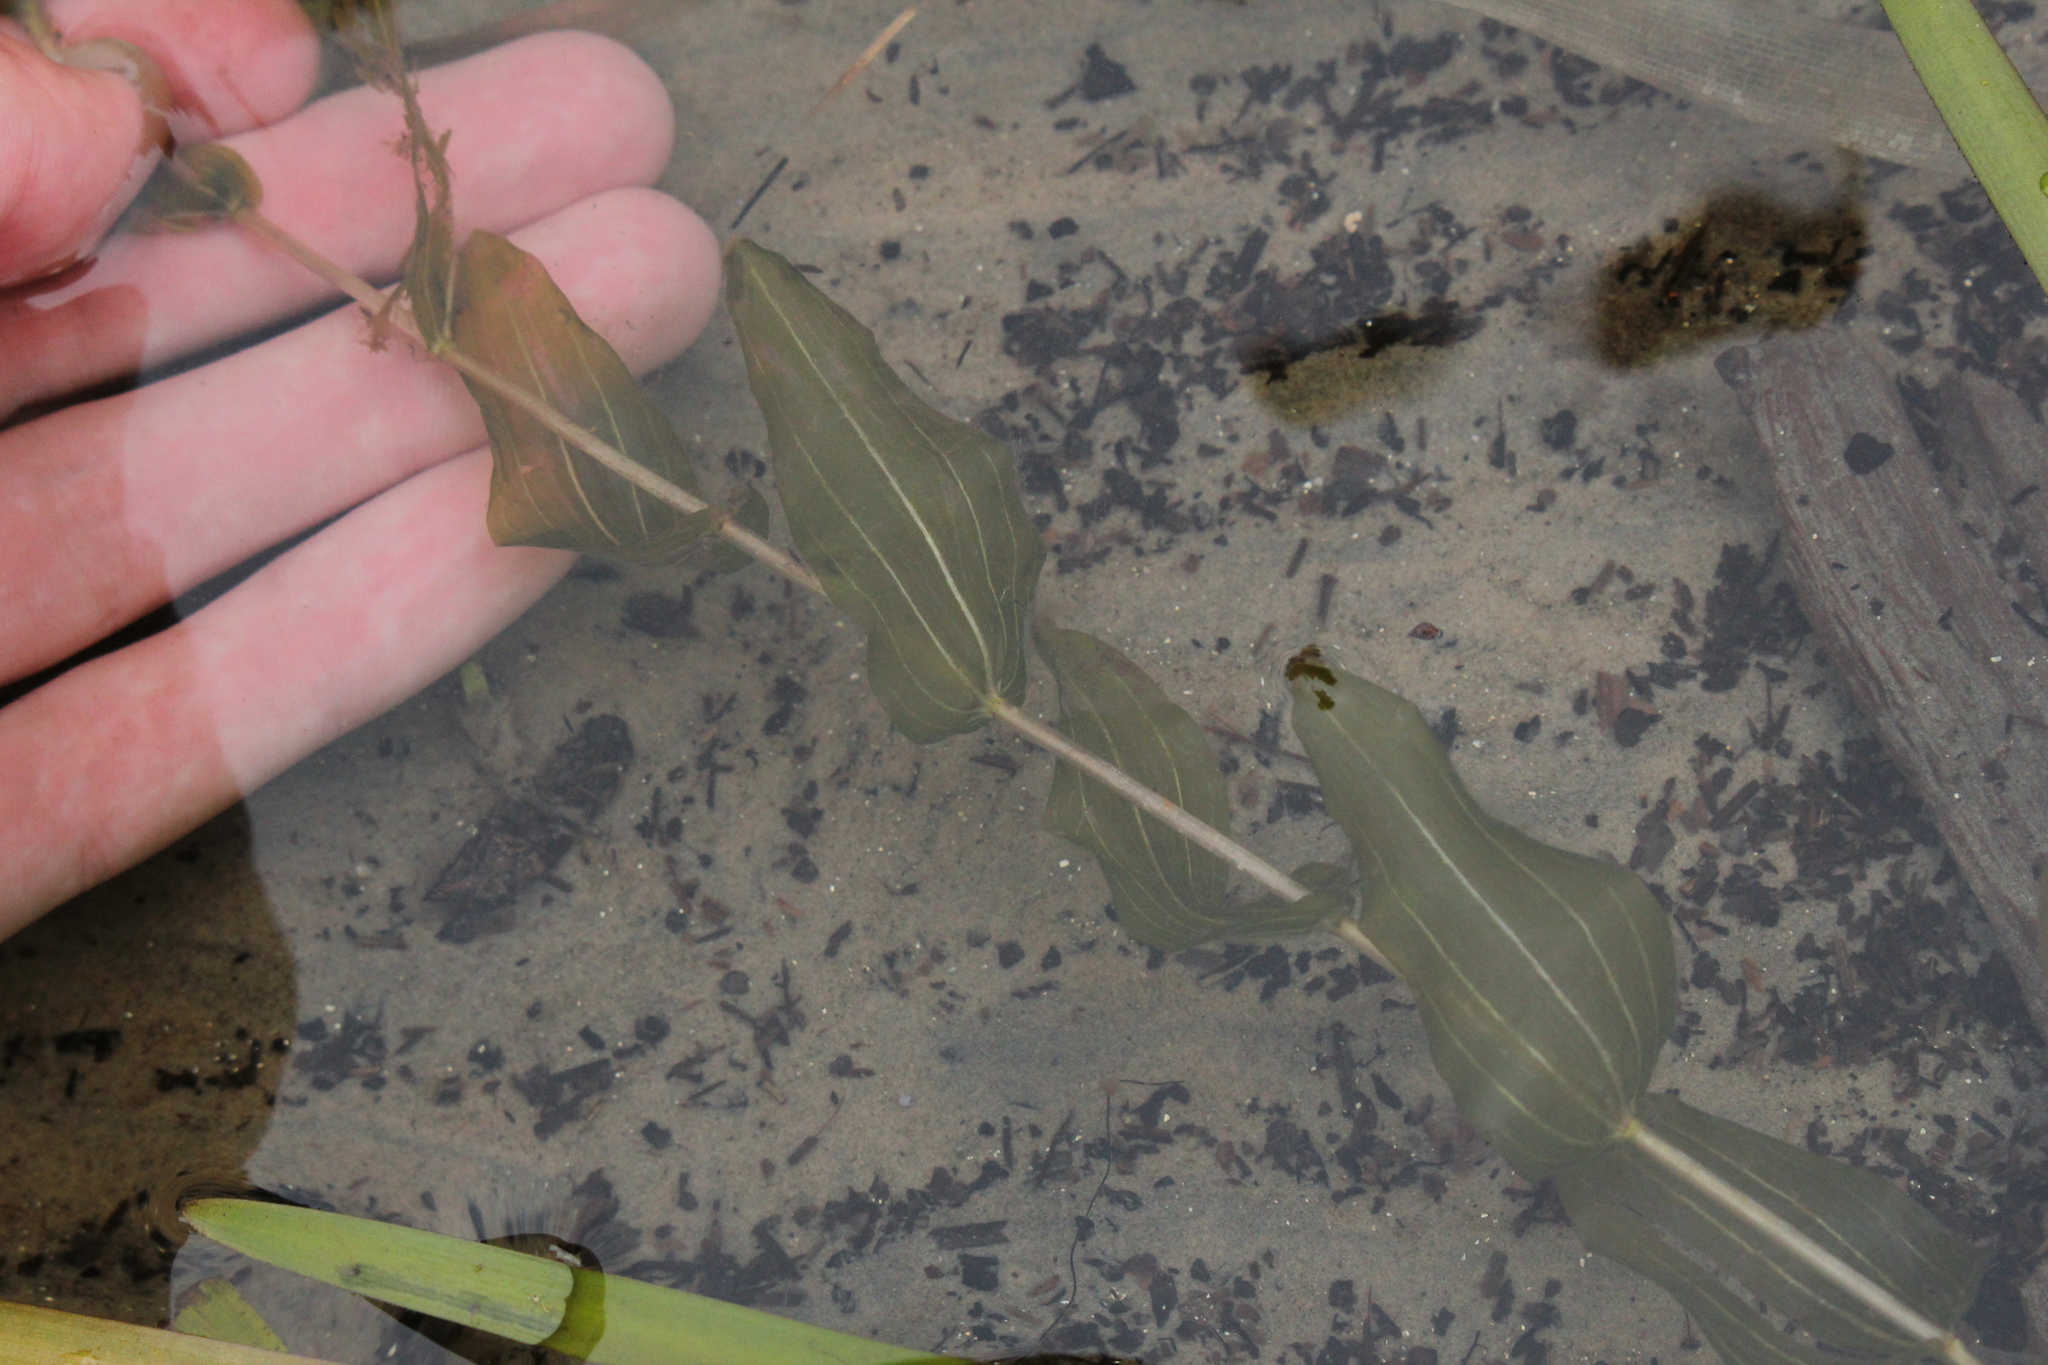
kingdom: Plantae
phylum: Tracheophyta
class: Liliopsida
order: Alismatales
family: Potamogetonaceae
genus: Potamogeton
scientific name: Potamogeton perfoliatus
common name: Perfoliate pondweed
